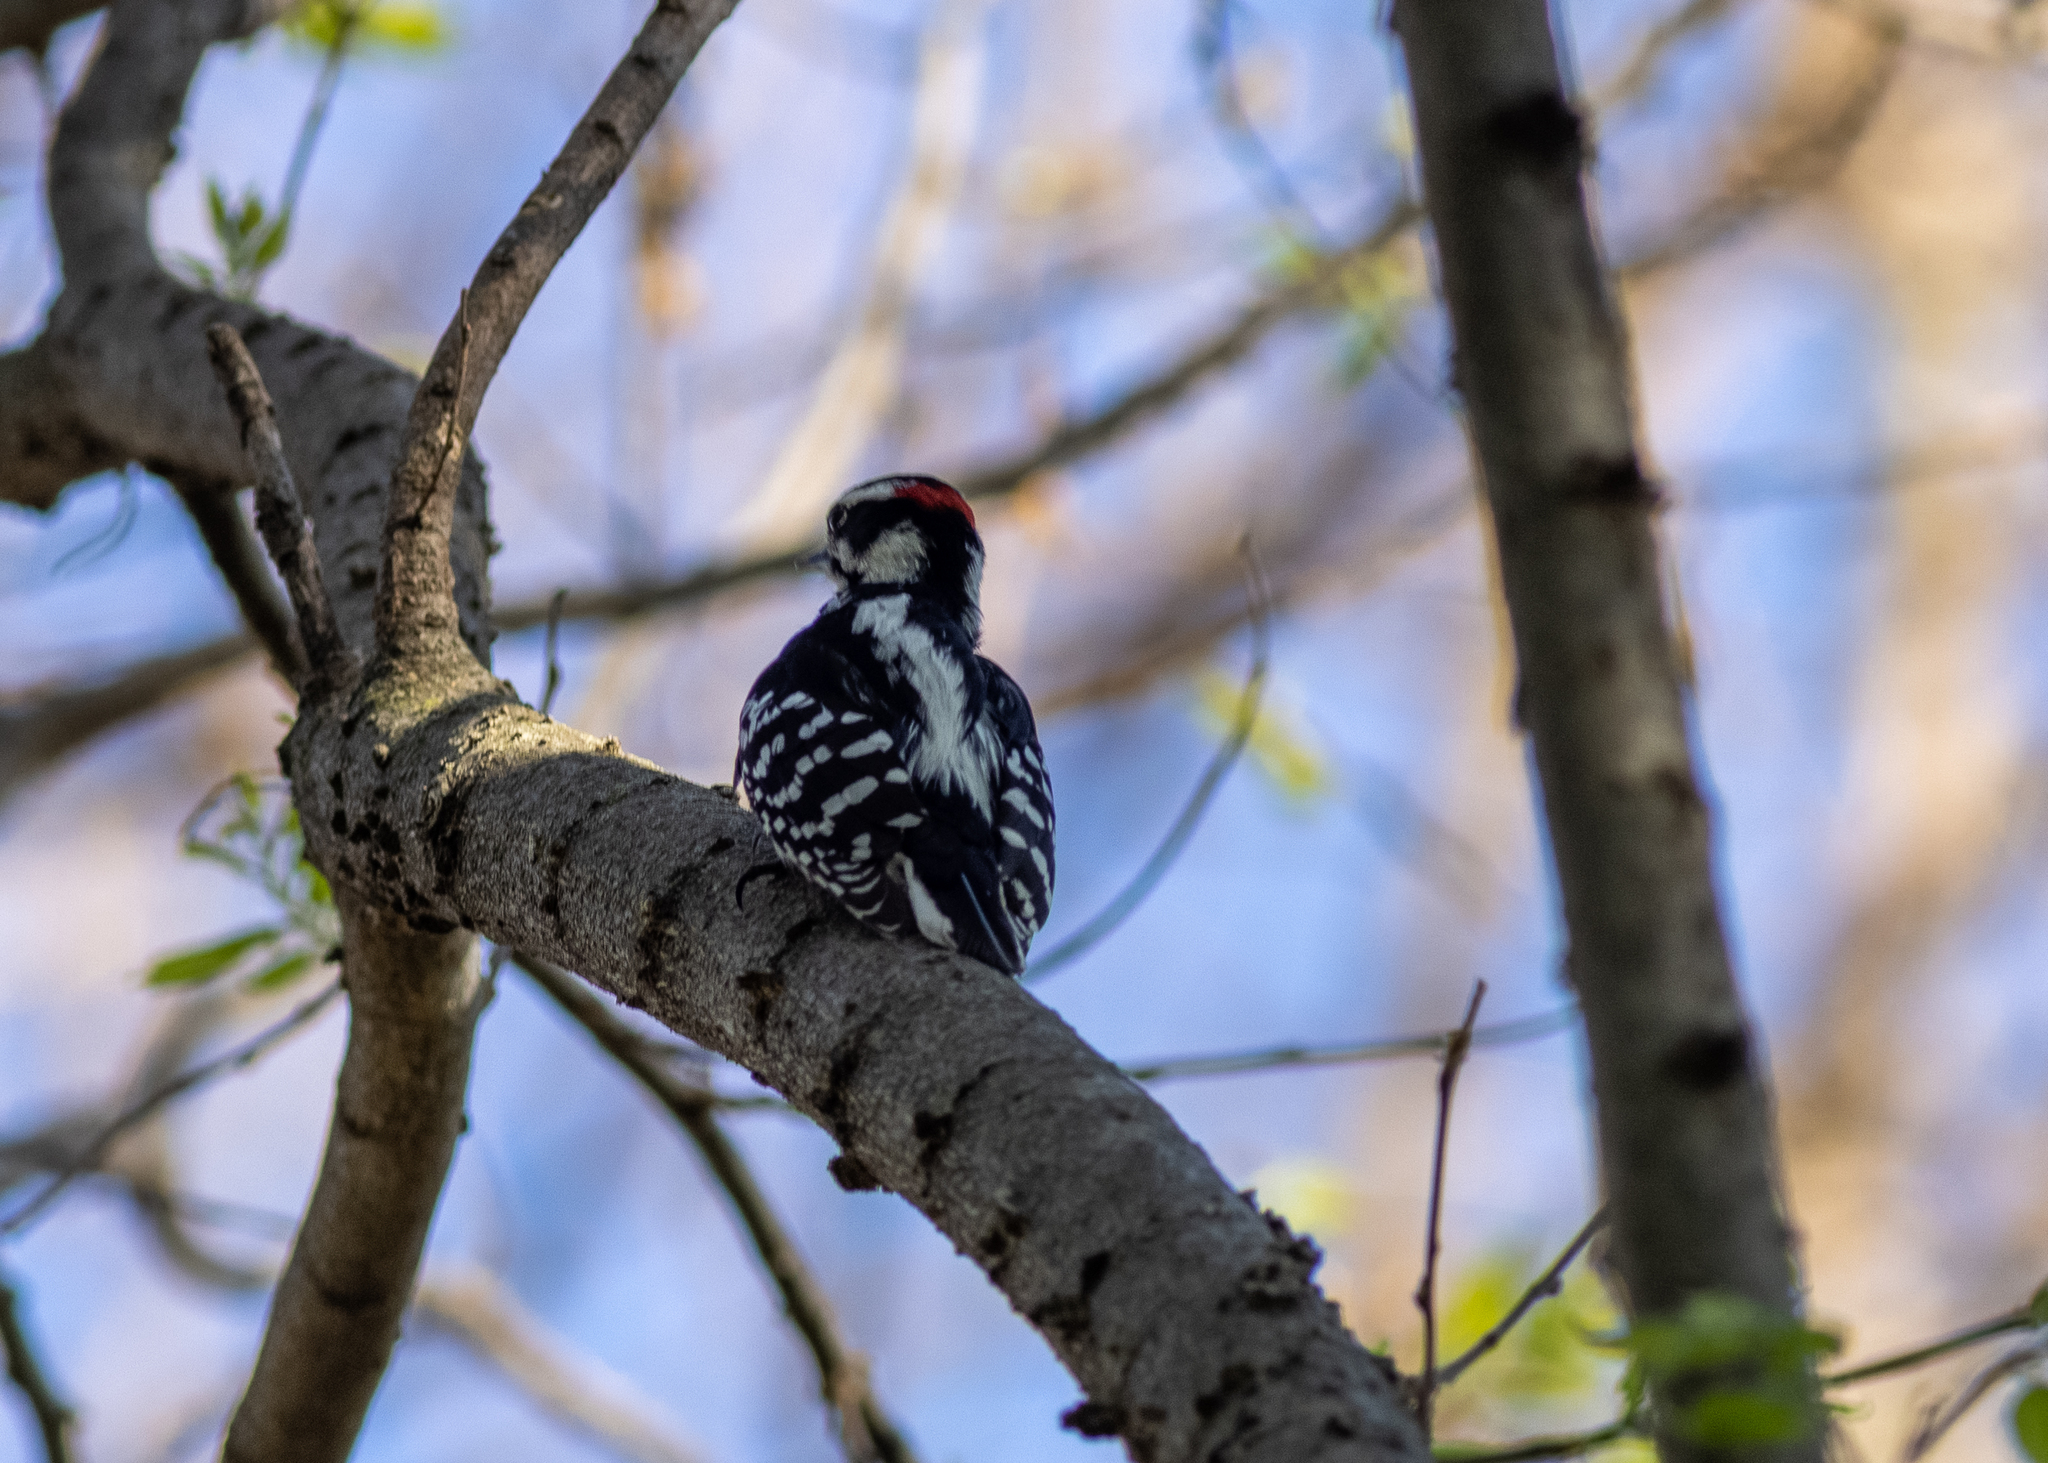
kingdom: Animalia
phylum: Chordata
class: Aves
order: Piciformes
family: Picidae
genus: Dryobates
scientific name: Dryobates pubescens
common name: Downy woodpecker
